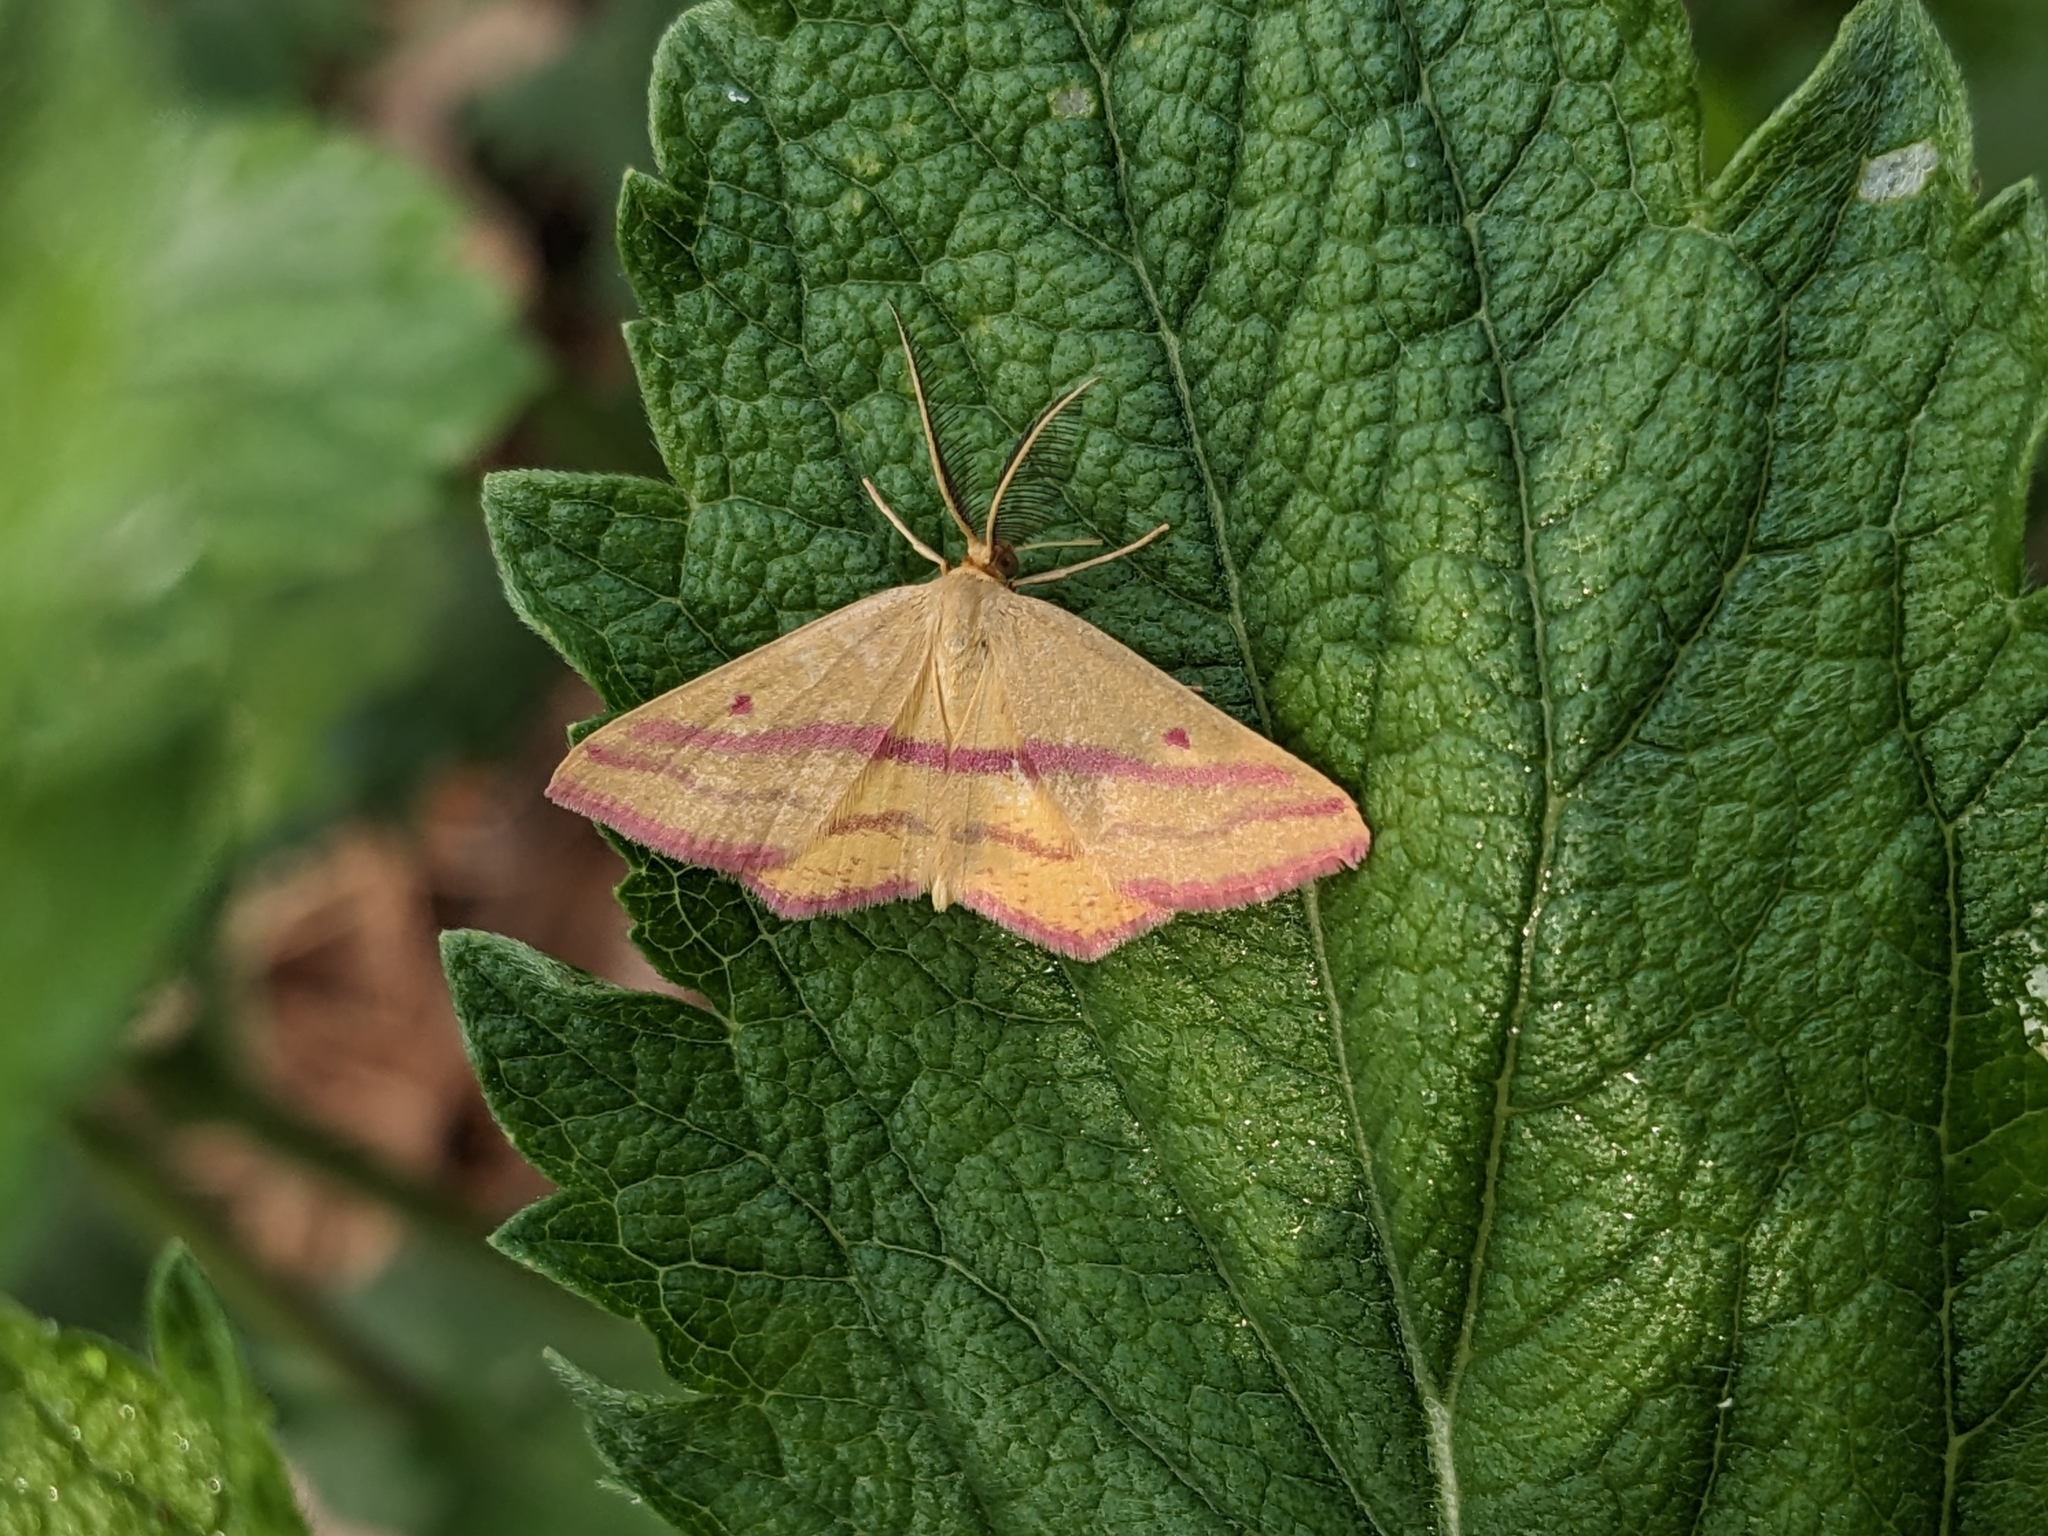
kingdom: Animalia
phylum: Arthropoda
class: Insecta
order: Lepidoptera
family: Geometridae
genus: Haematopis
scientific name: Haematopis grataria
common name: Chickweed geometer
